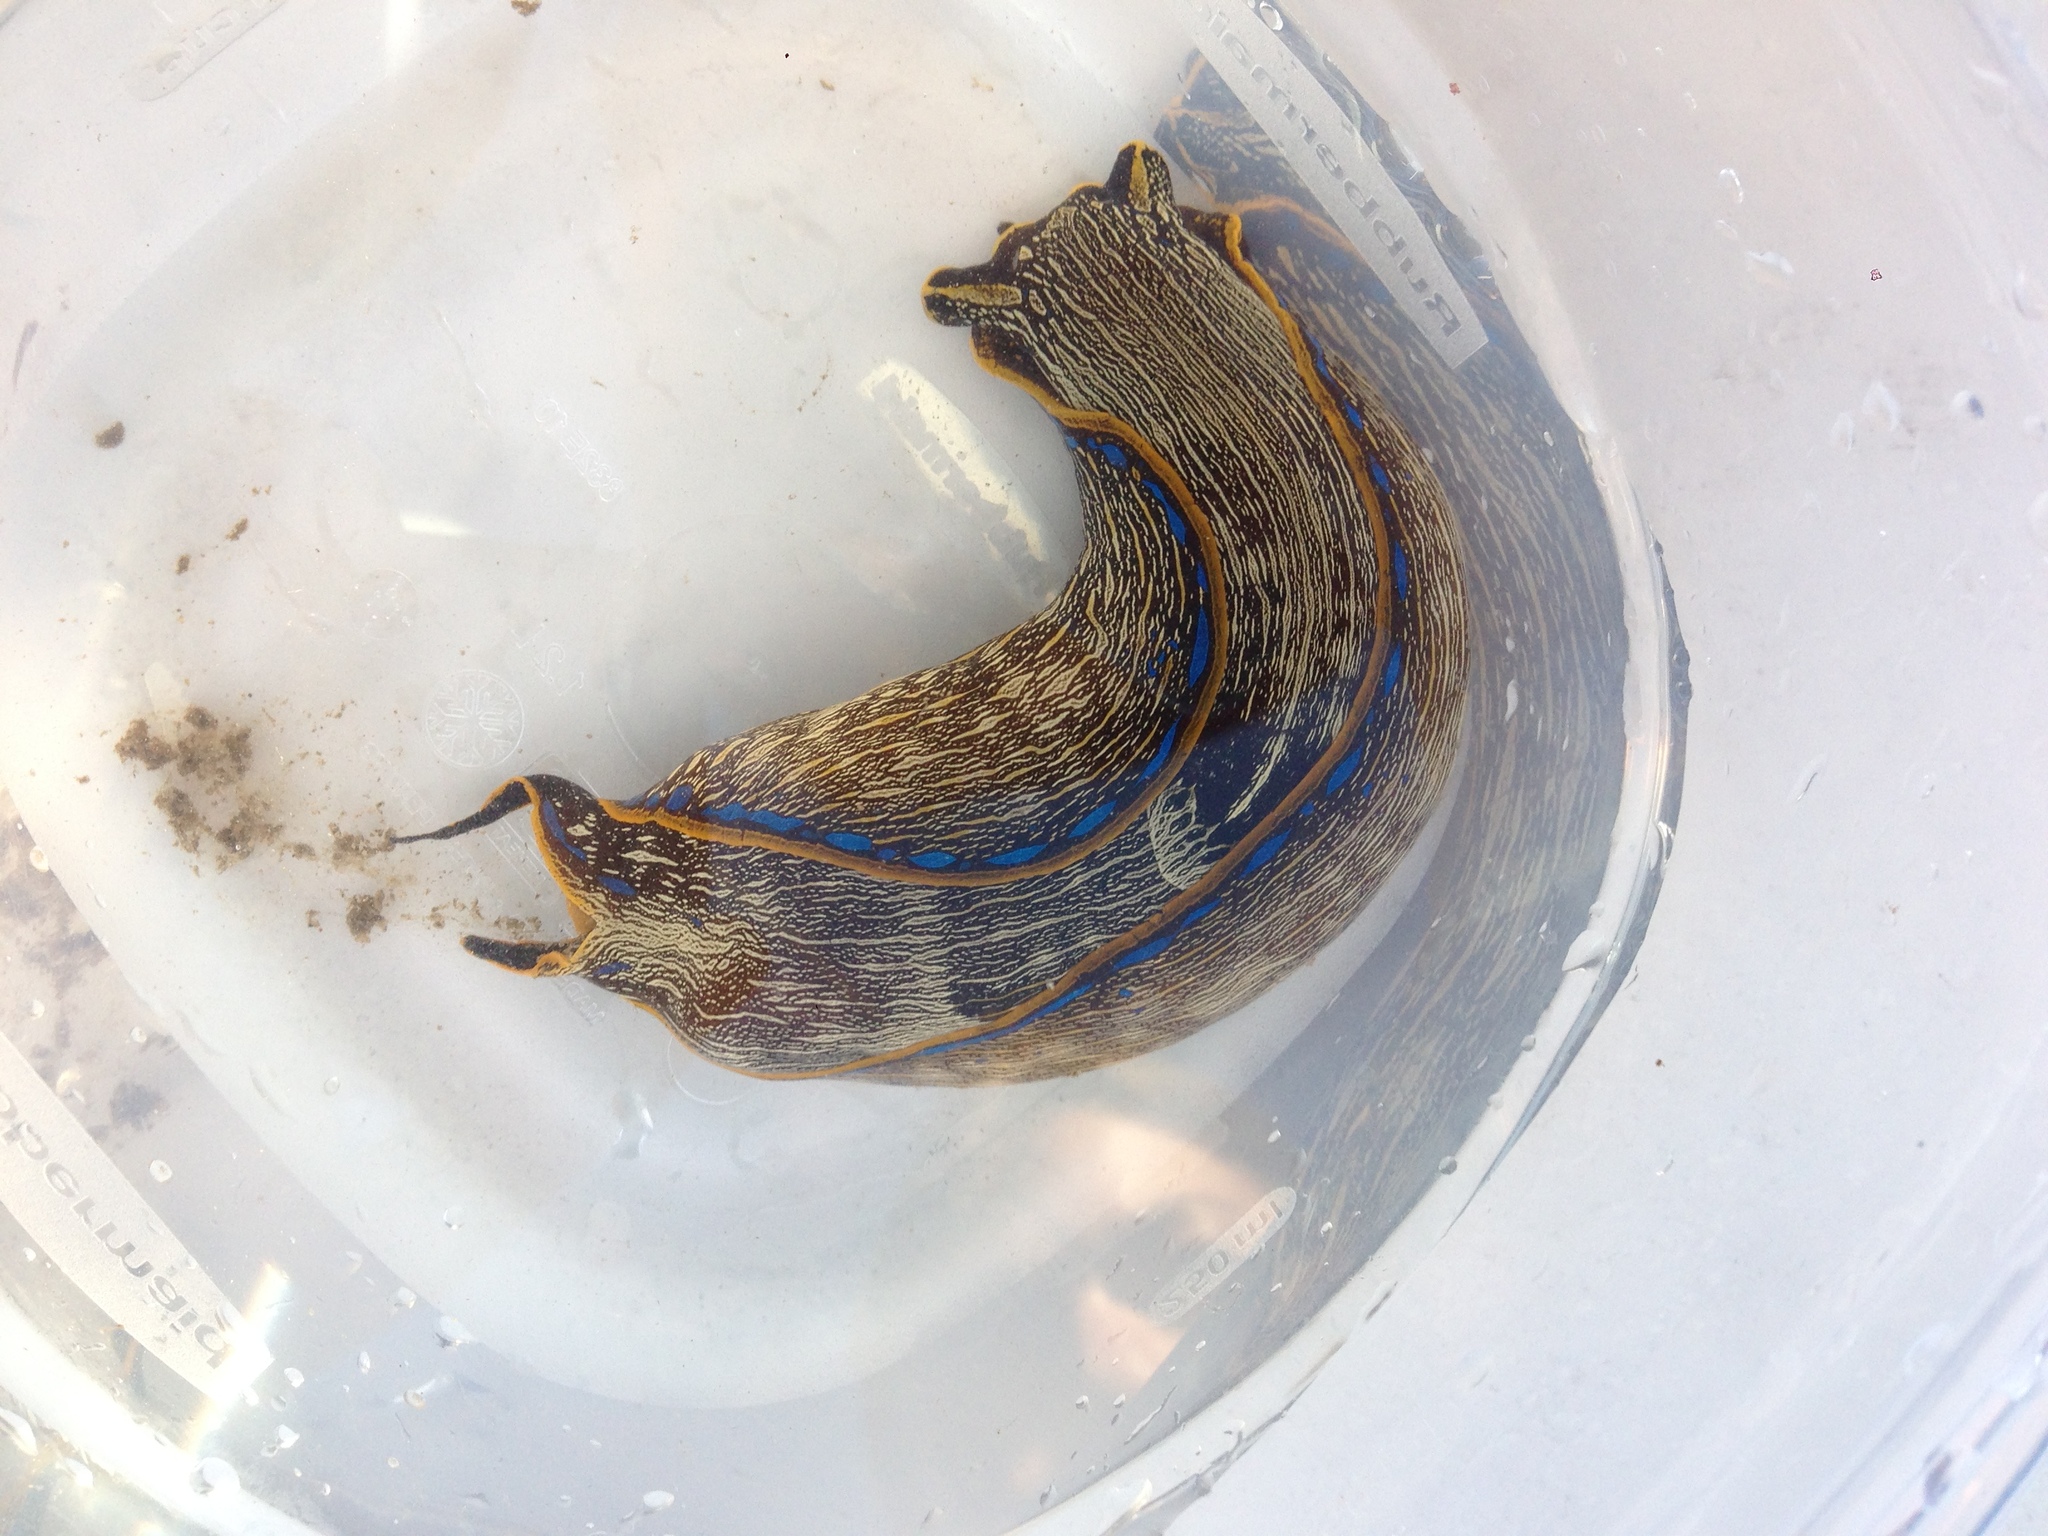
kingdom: Animalia
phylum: Mollusca
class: Gastropoda
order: Cephalaspidea
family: Aglajidae
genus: Navanax
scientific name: Navanax inermis
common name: California aglaja
